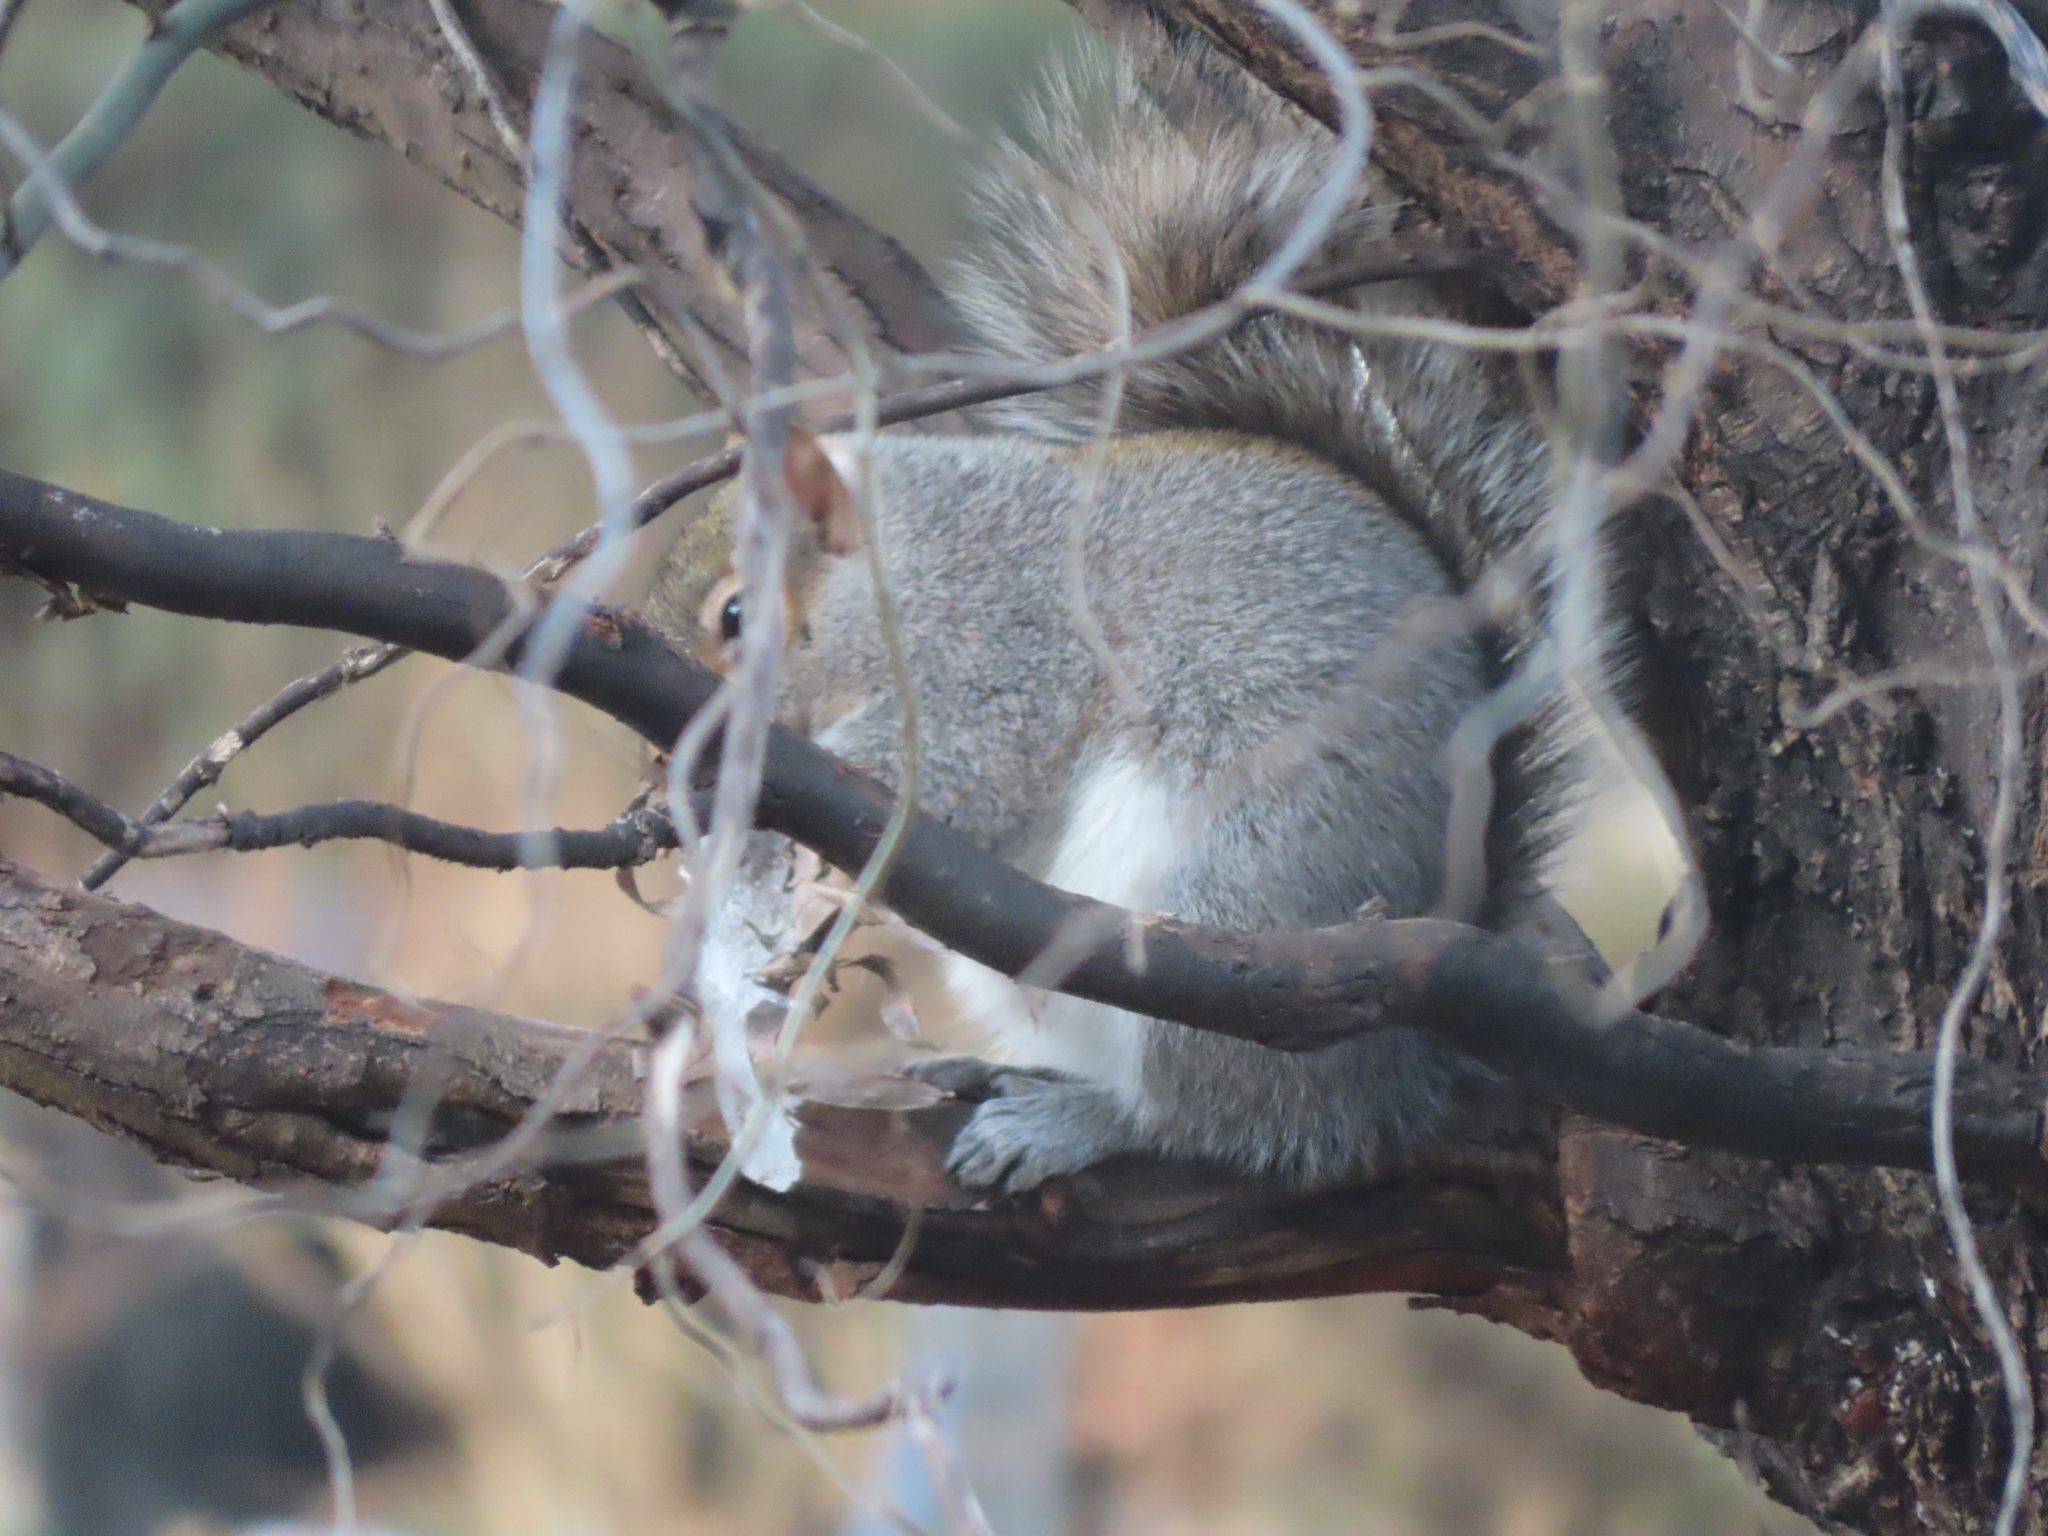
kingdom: Animalia
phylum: Chordata
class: Mammalia
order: Rodentia
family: Sciuridae
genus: Sciurus
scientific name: Sciurus carolinensis
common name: Eastern gray squirrel
